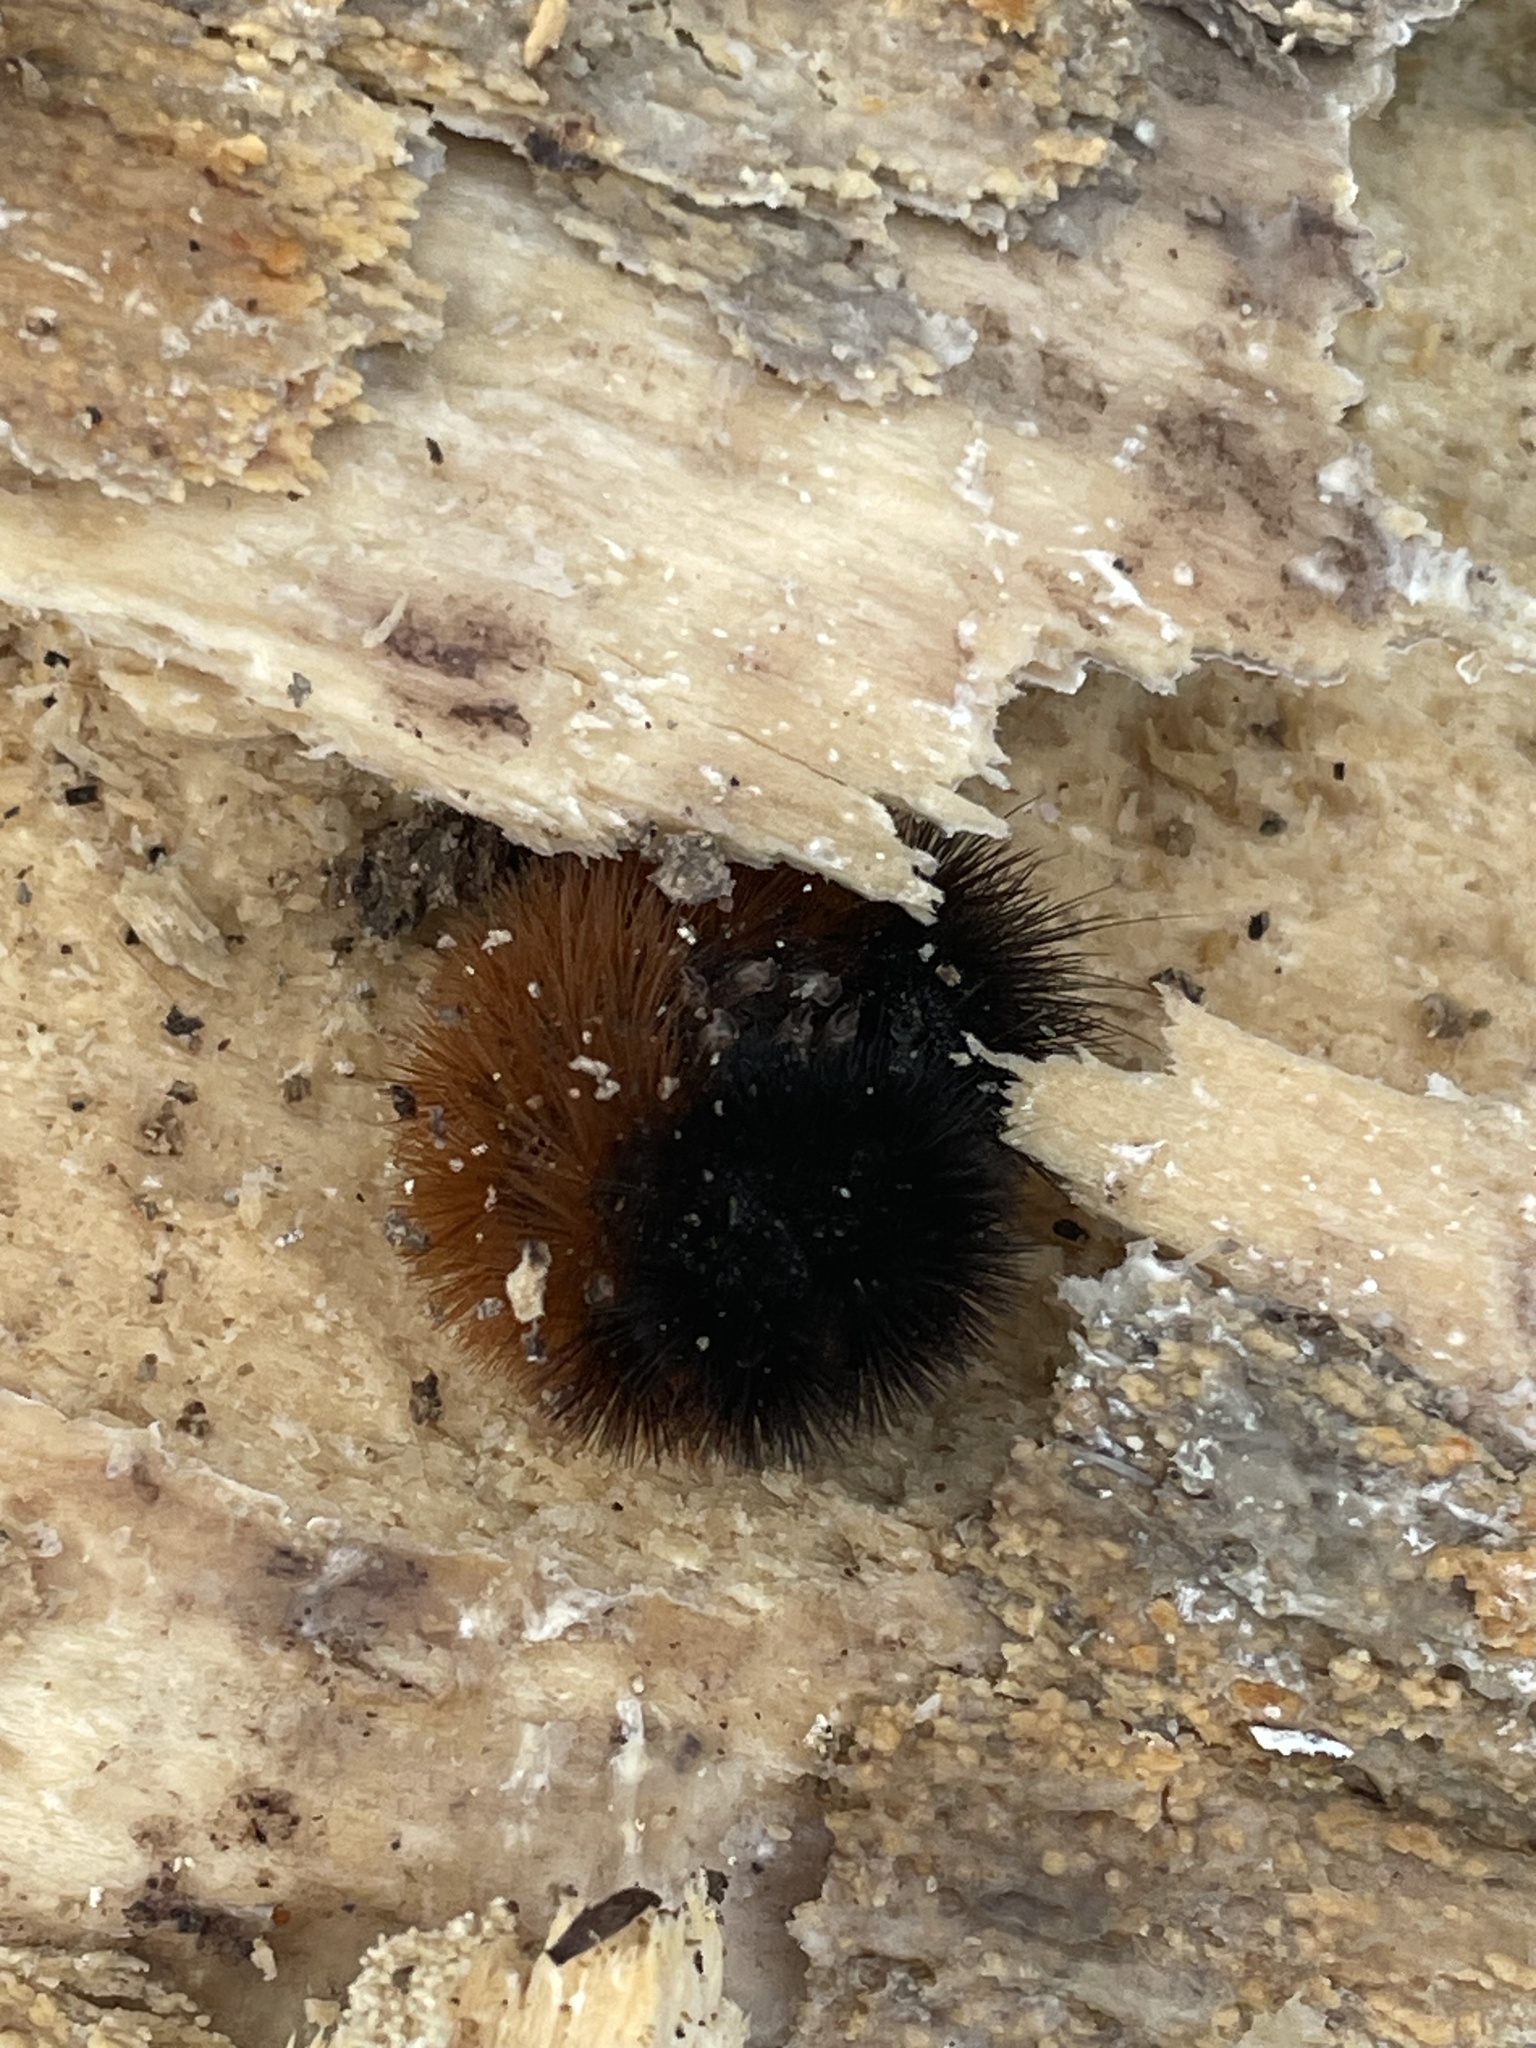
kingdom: Animalia
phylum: Arthropoda
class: Insecta
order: Lepidoptera
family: Erebidae
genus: Pyrrharctia
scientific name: Pyrrharctia isabella
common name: Isabella tiger moth
